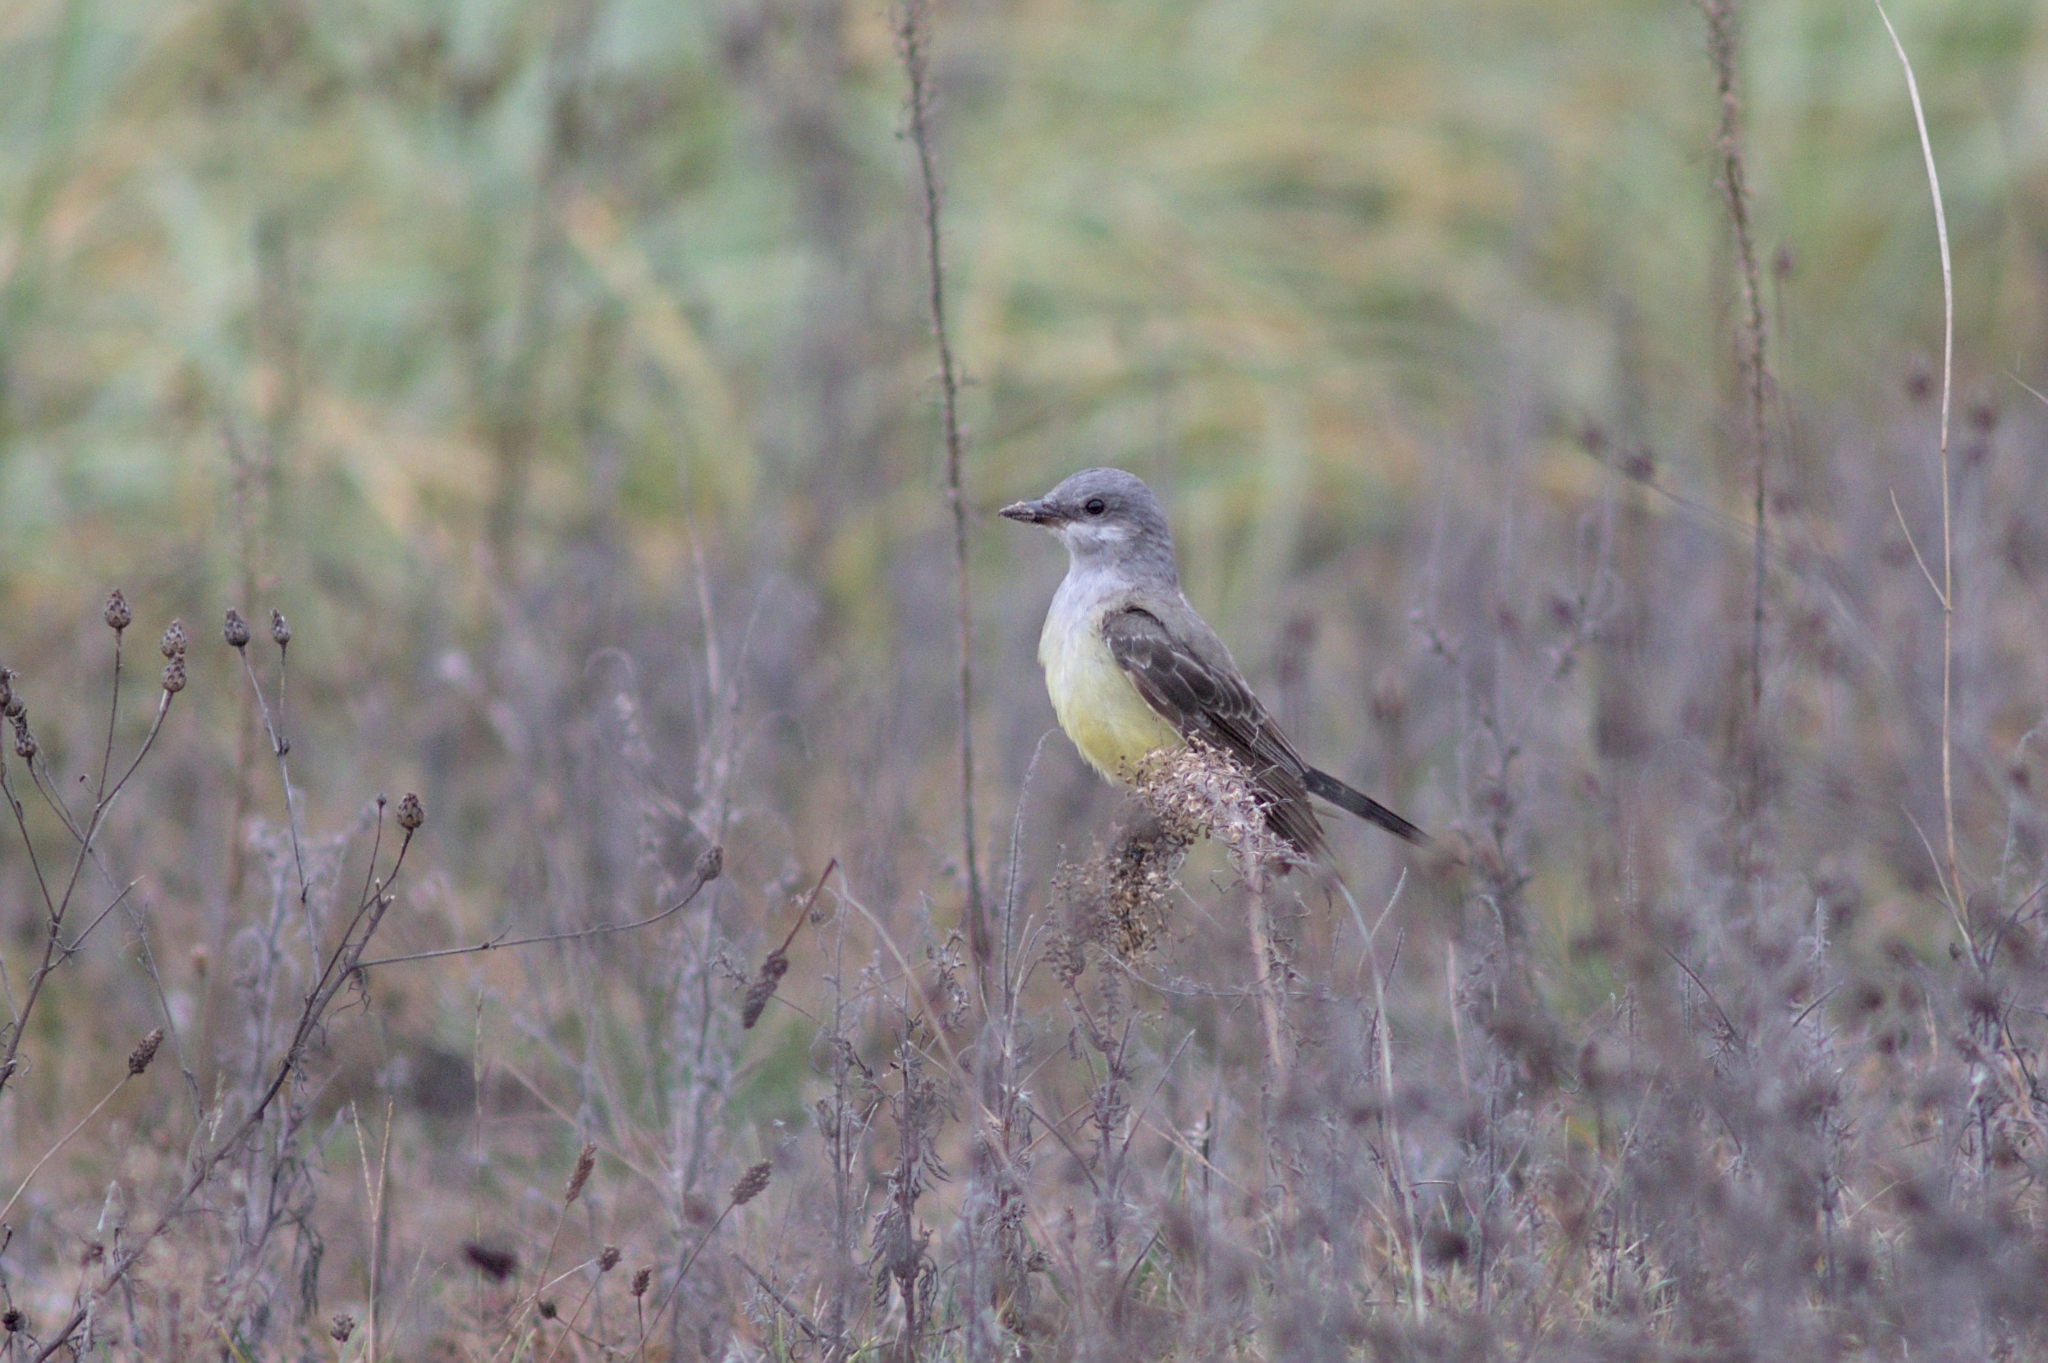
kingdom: Animalia
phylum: Chordata
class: Aves
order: Passeriformes
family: Tyrannidae
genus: Tyrannus
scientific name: Tyrannus verticalis
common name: Western kingbird
